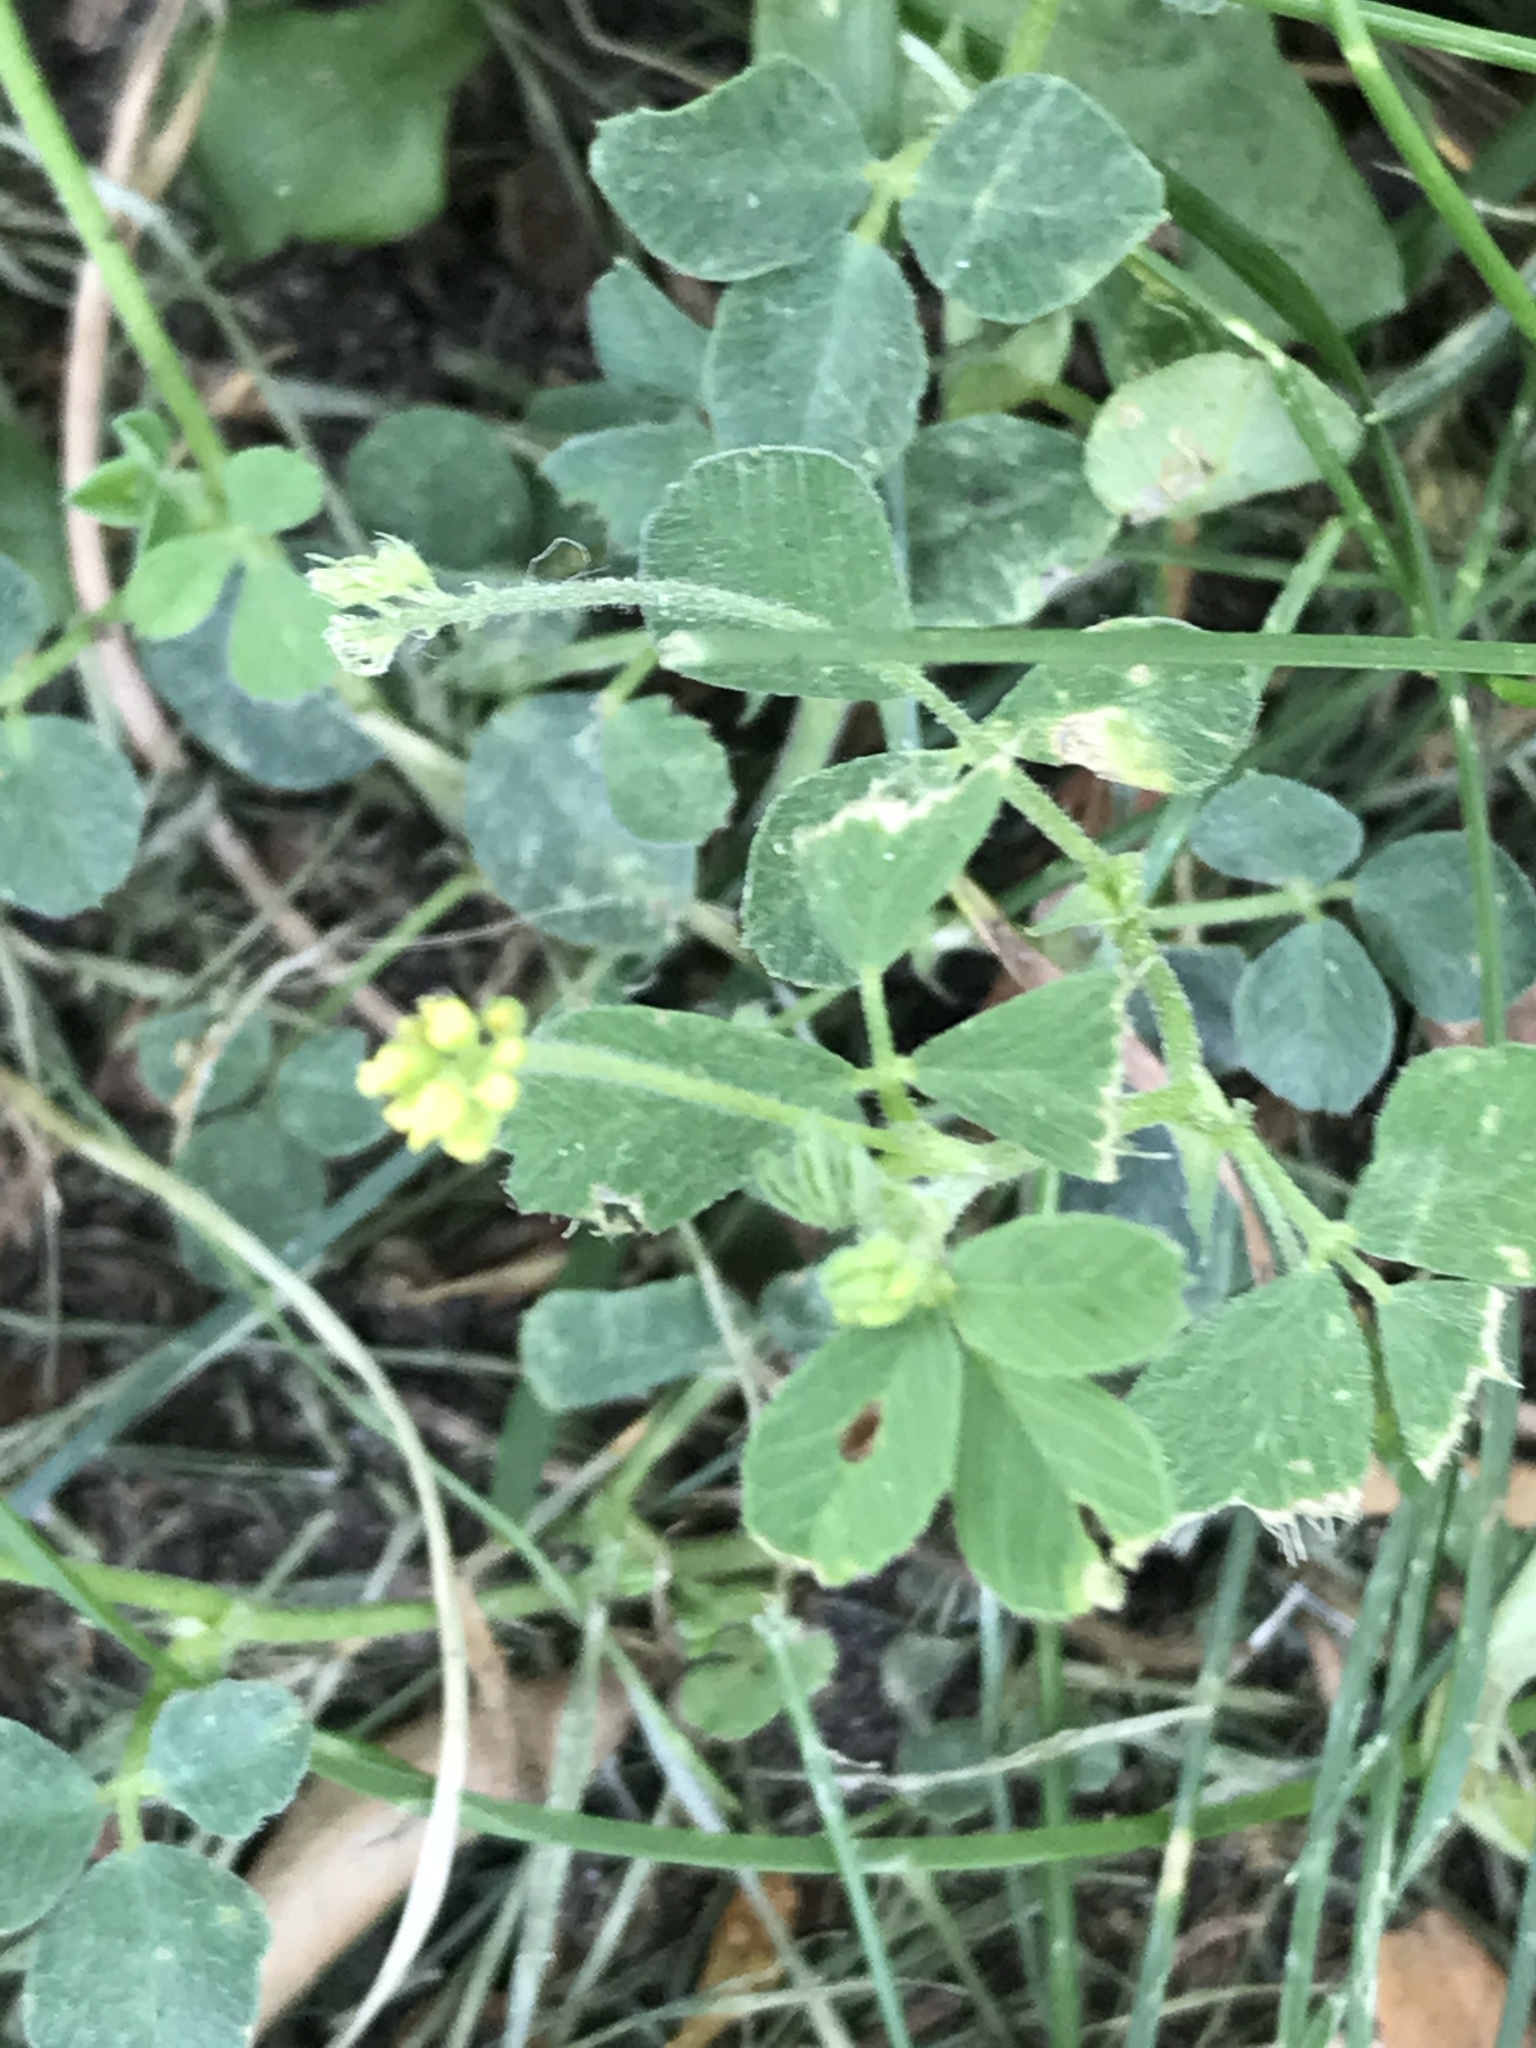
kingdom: Plantae
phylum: Tracheophyta
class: Magnoliopsida
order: Fabales
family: Fabaceae
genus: Medicago
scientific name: Medicago lupulina
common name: Black medick
